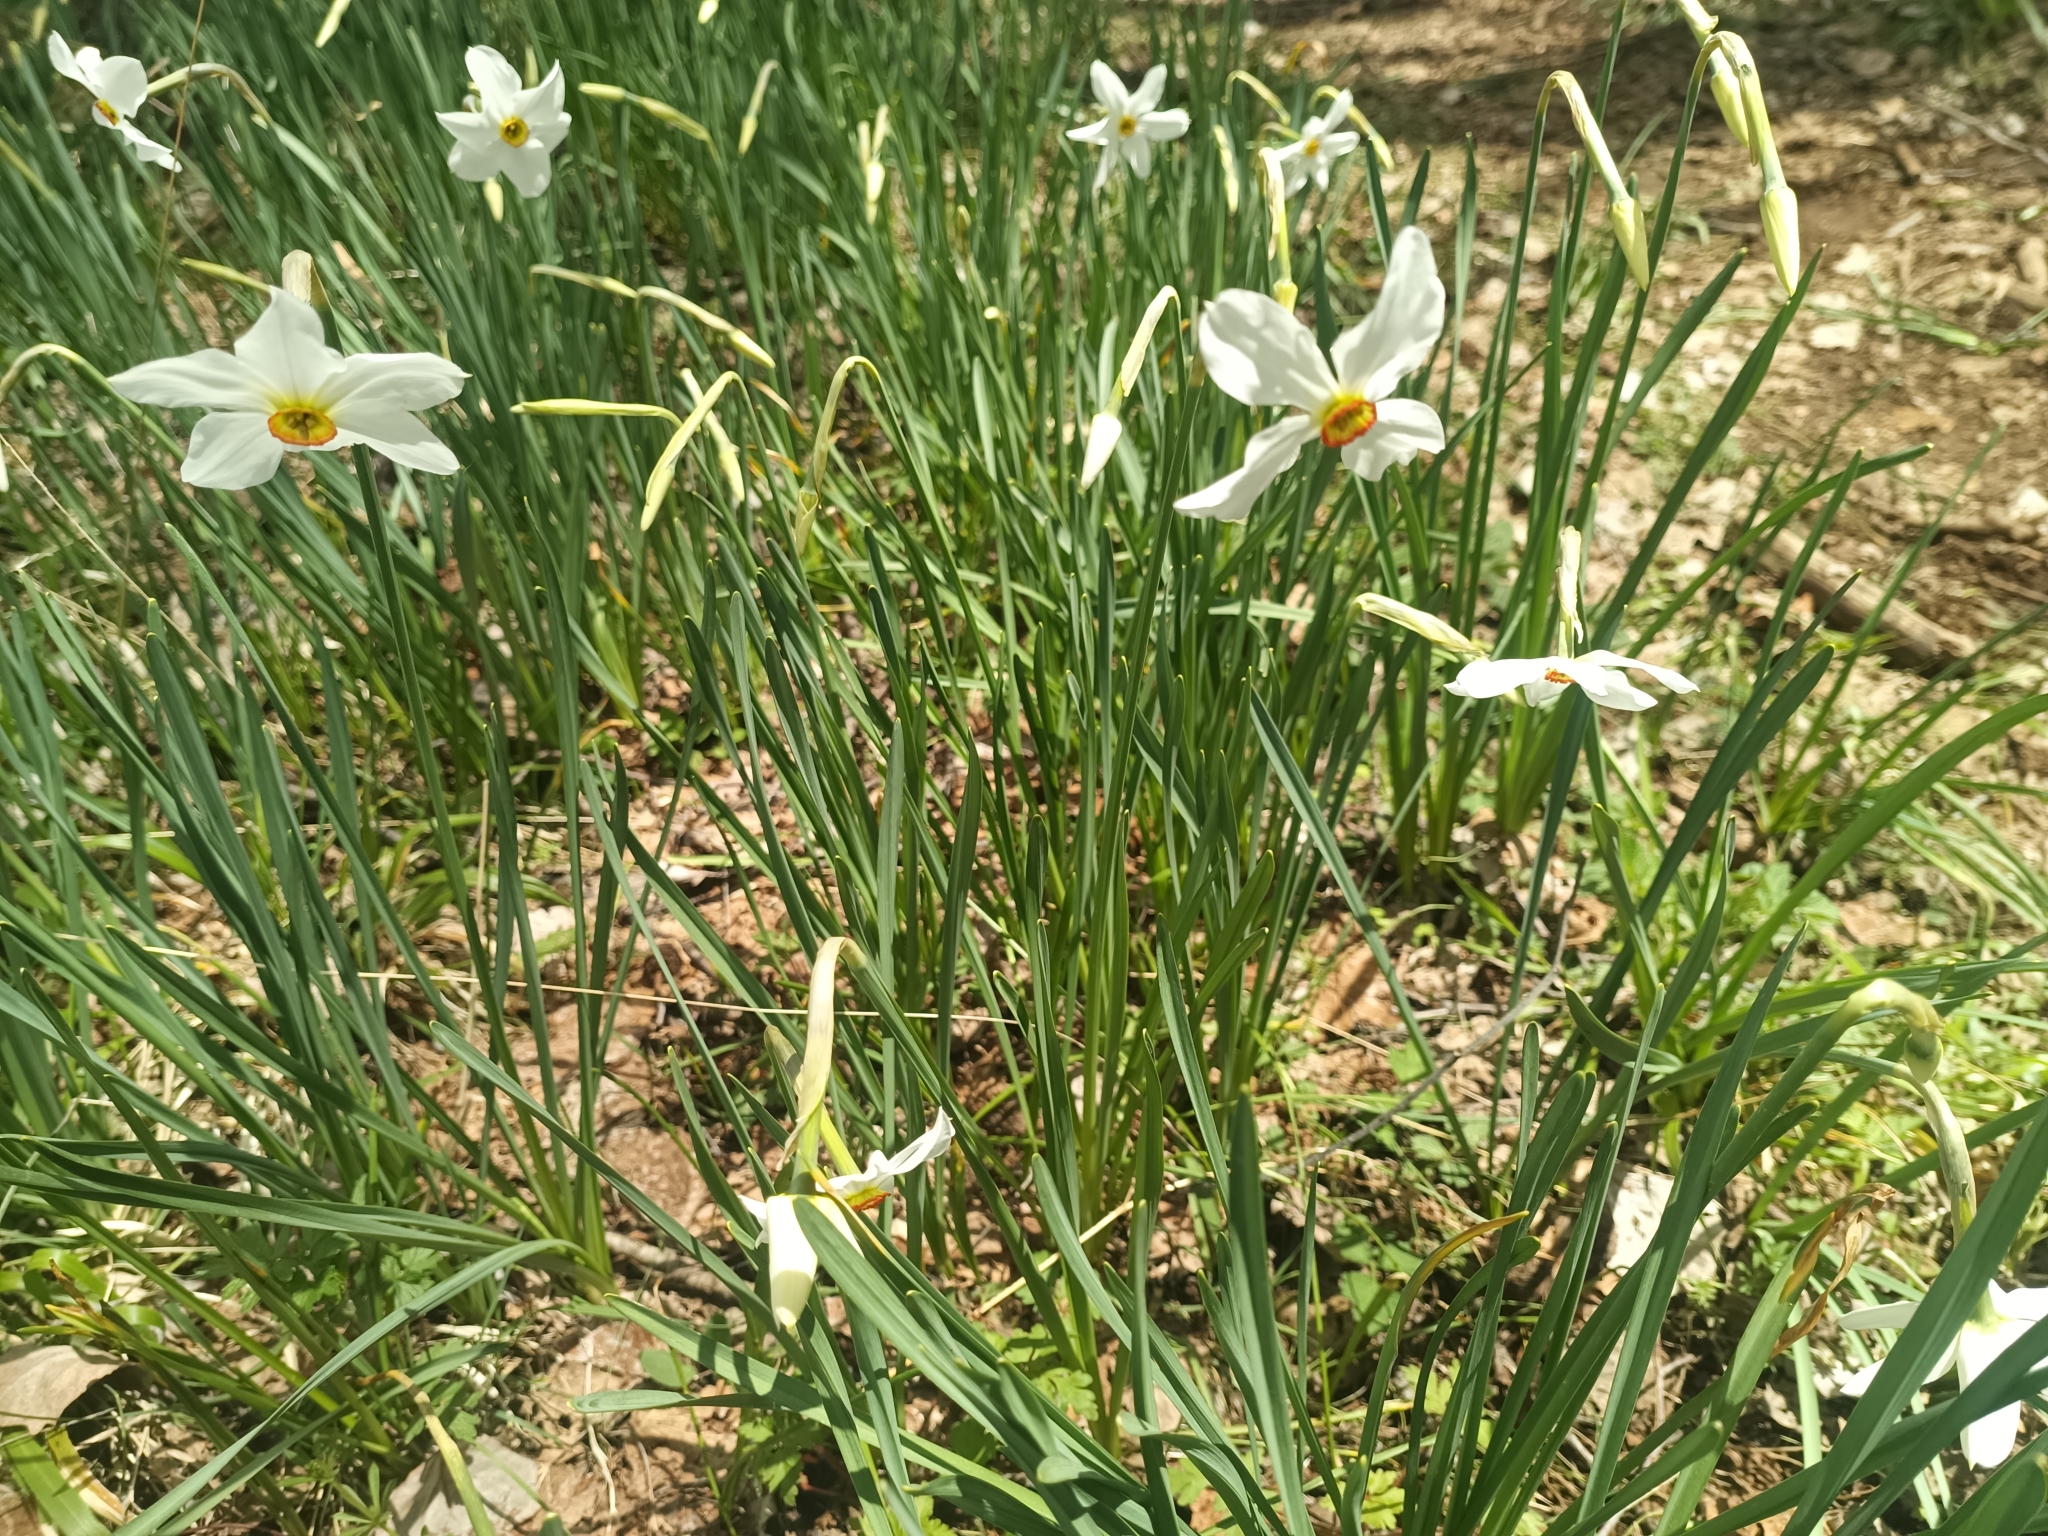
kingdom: Plantae
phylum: Tracheophyta
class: Liliopsida
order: Asparagales
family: Amaryllidaceae
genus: Narcissus
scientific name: Narcissus poeticus
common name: Pheasant's-eye daffodil
